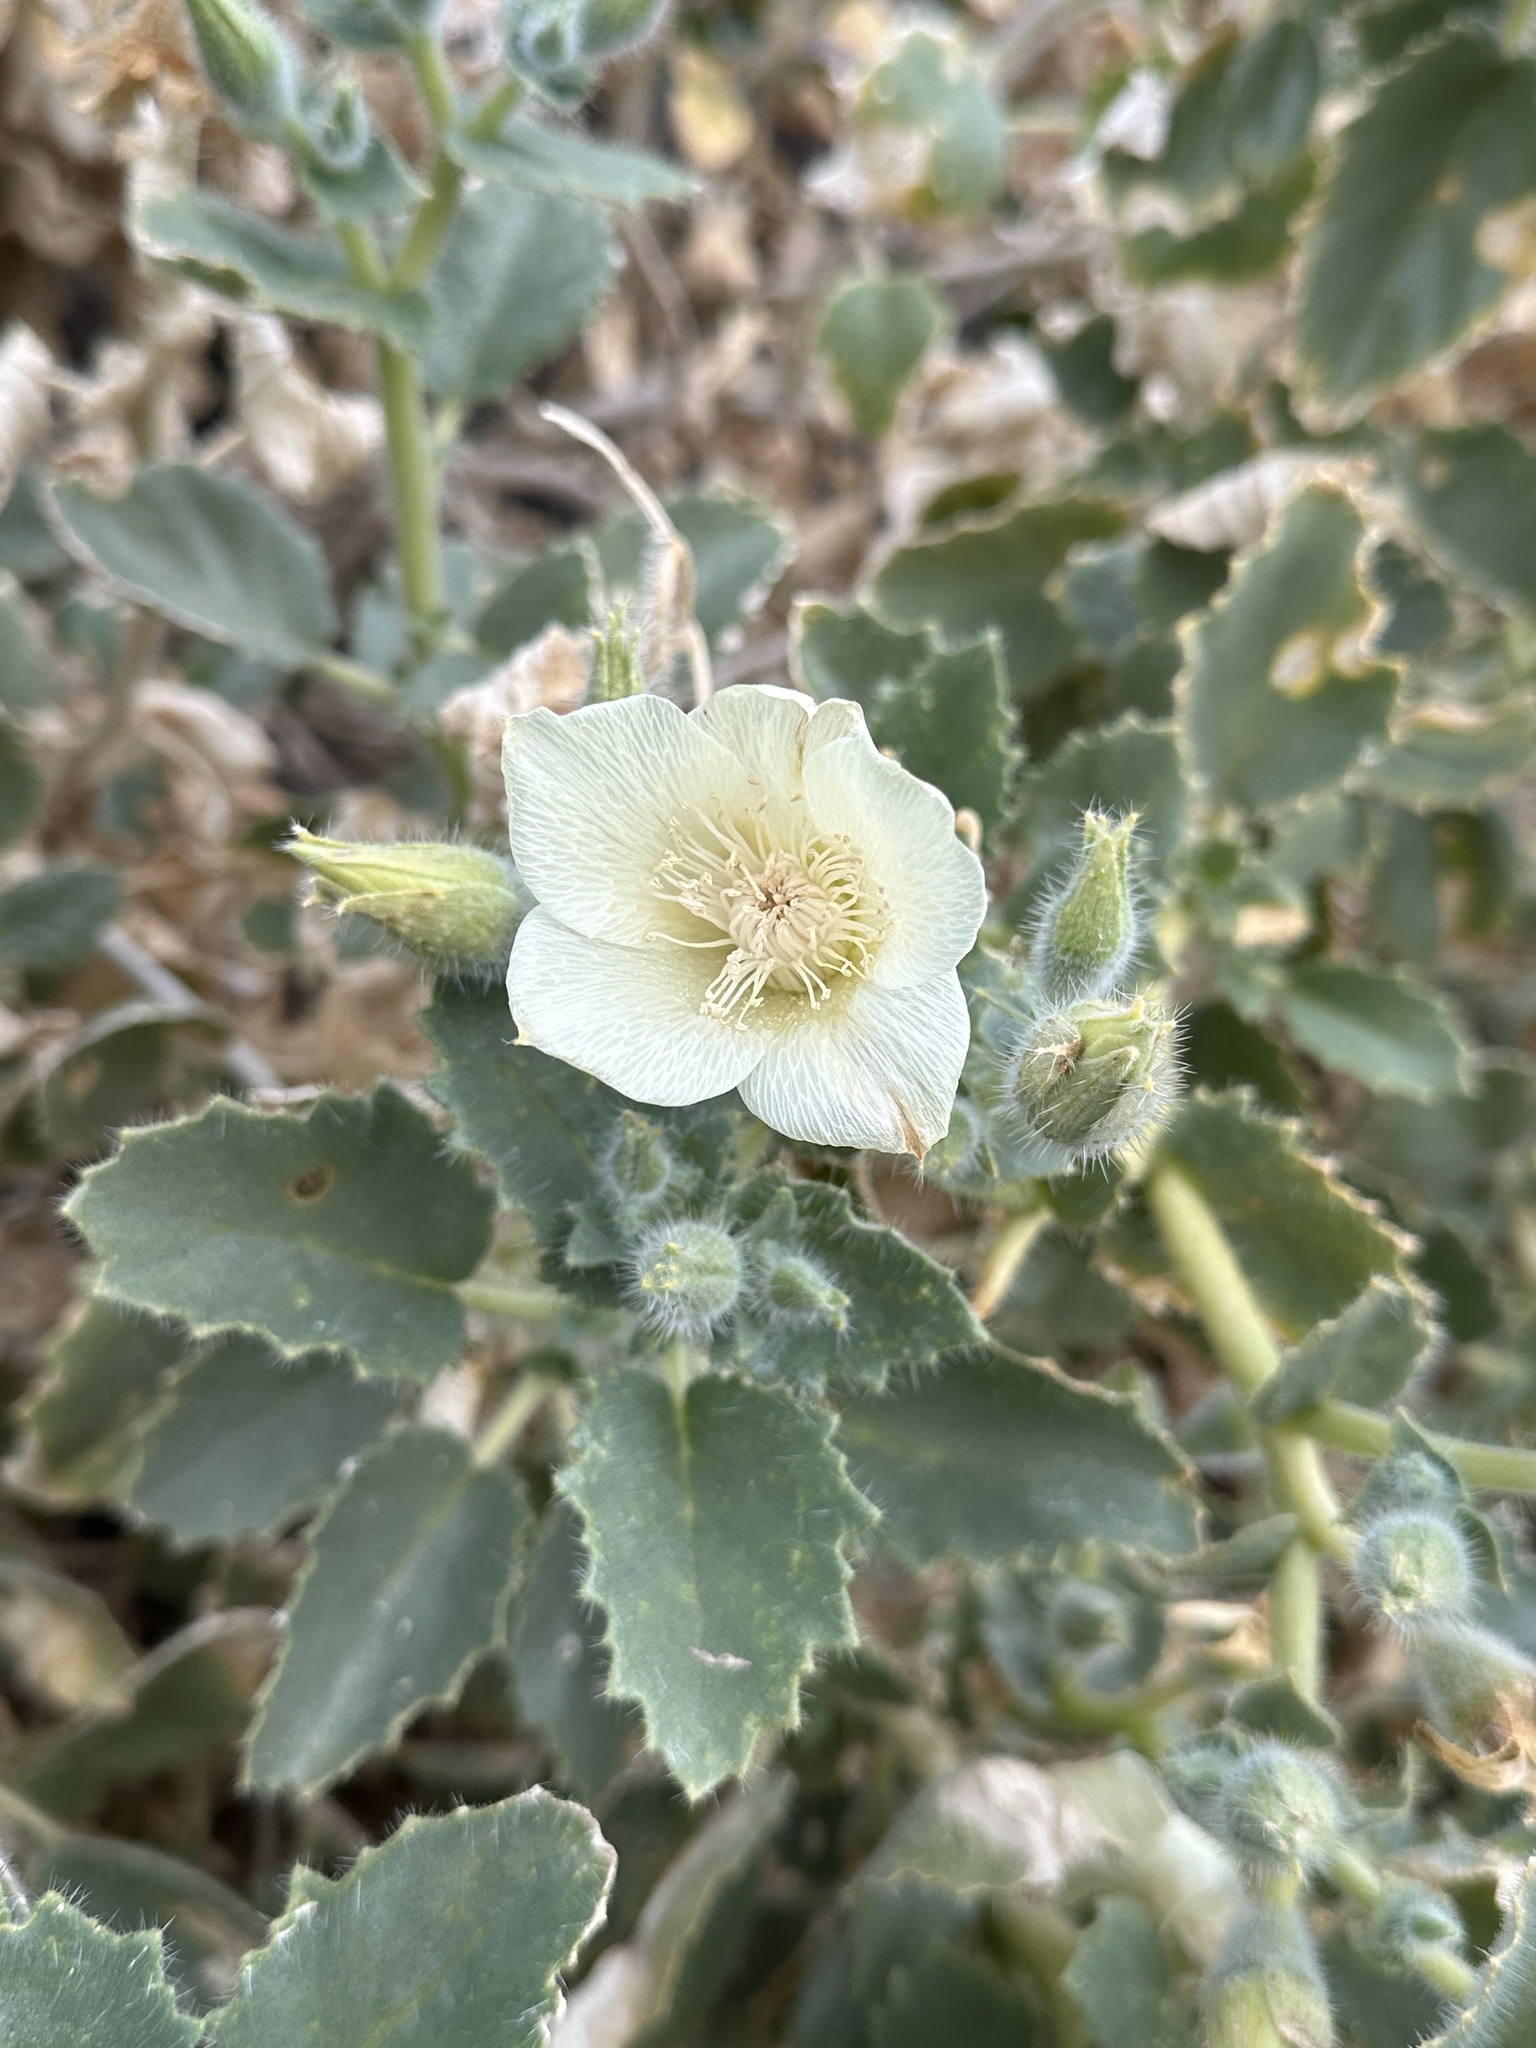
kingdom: Plantae
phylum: Tracheophyta
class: Magnoliopsida
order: Cornales
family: Loasaceae
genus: Eucnide
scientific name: Eucnide urens
